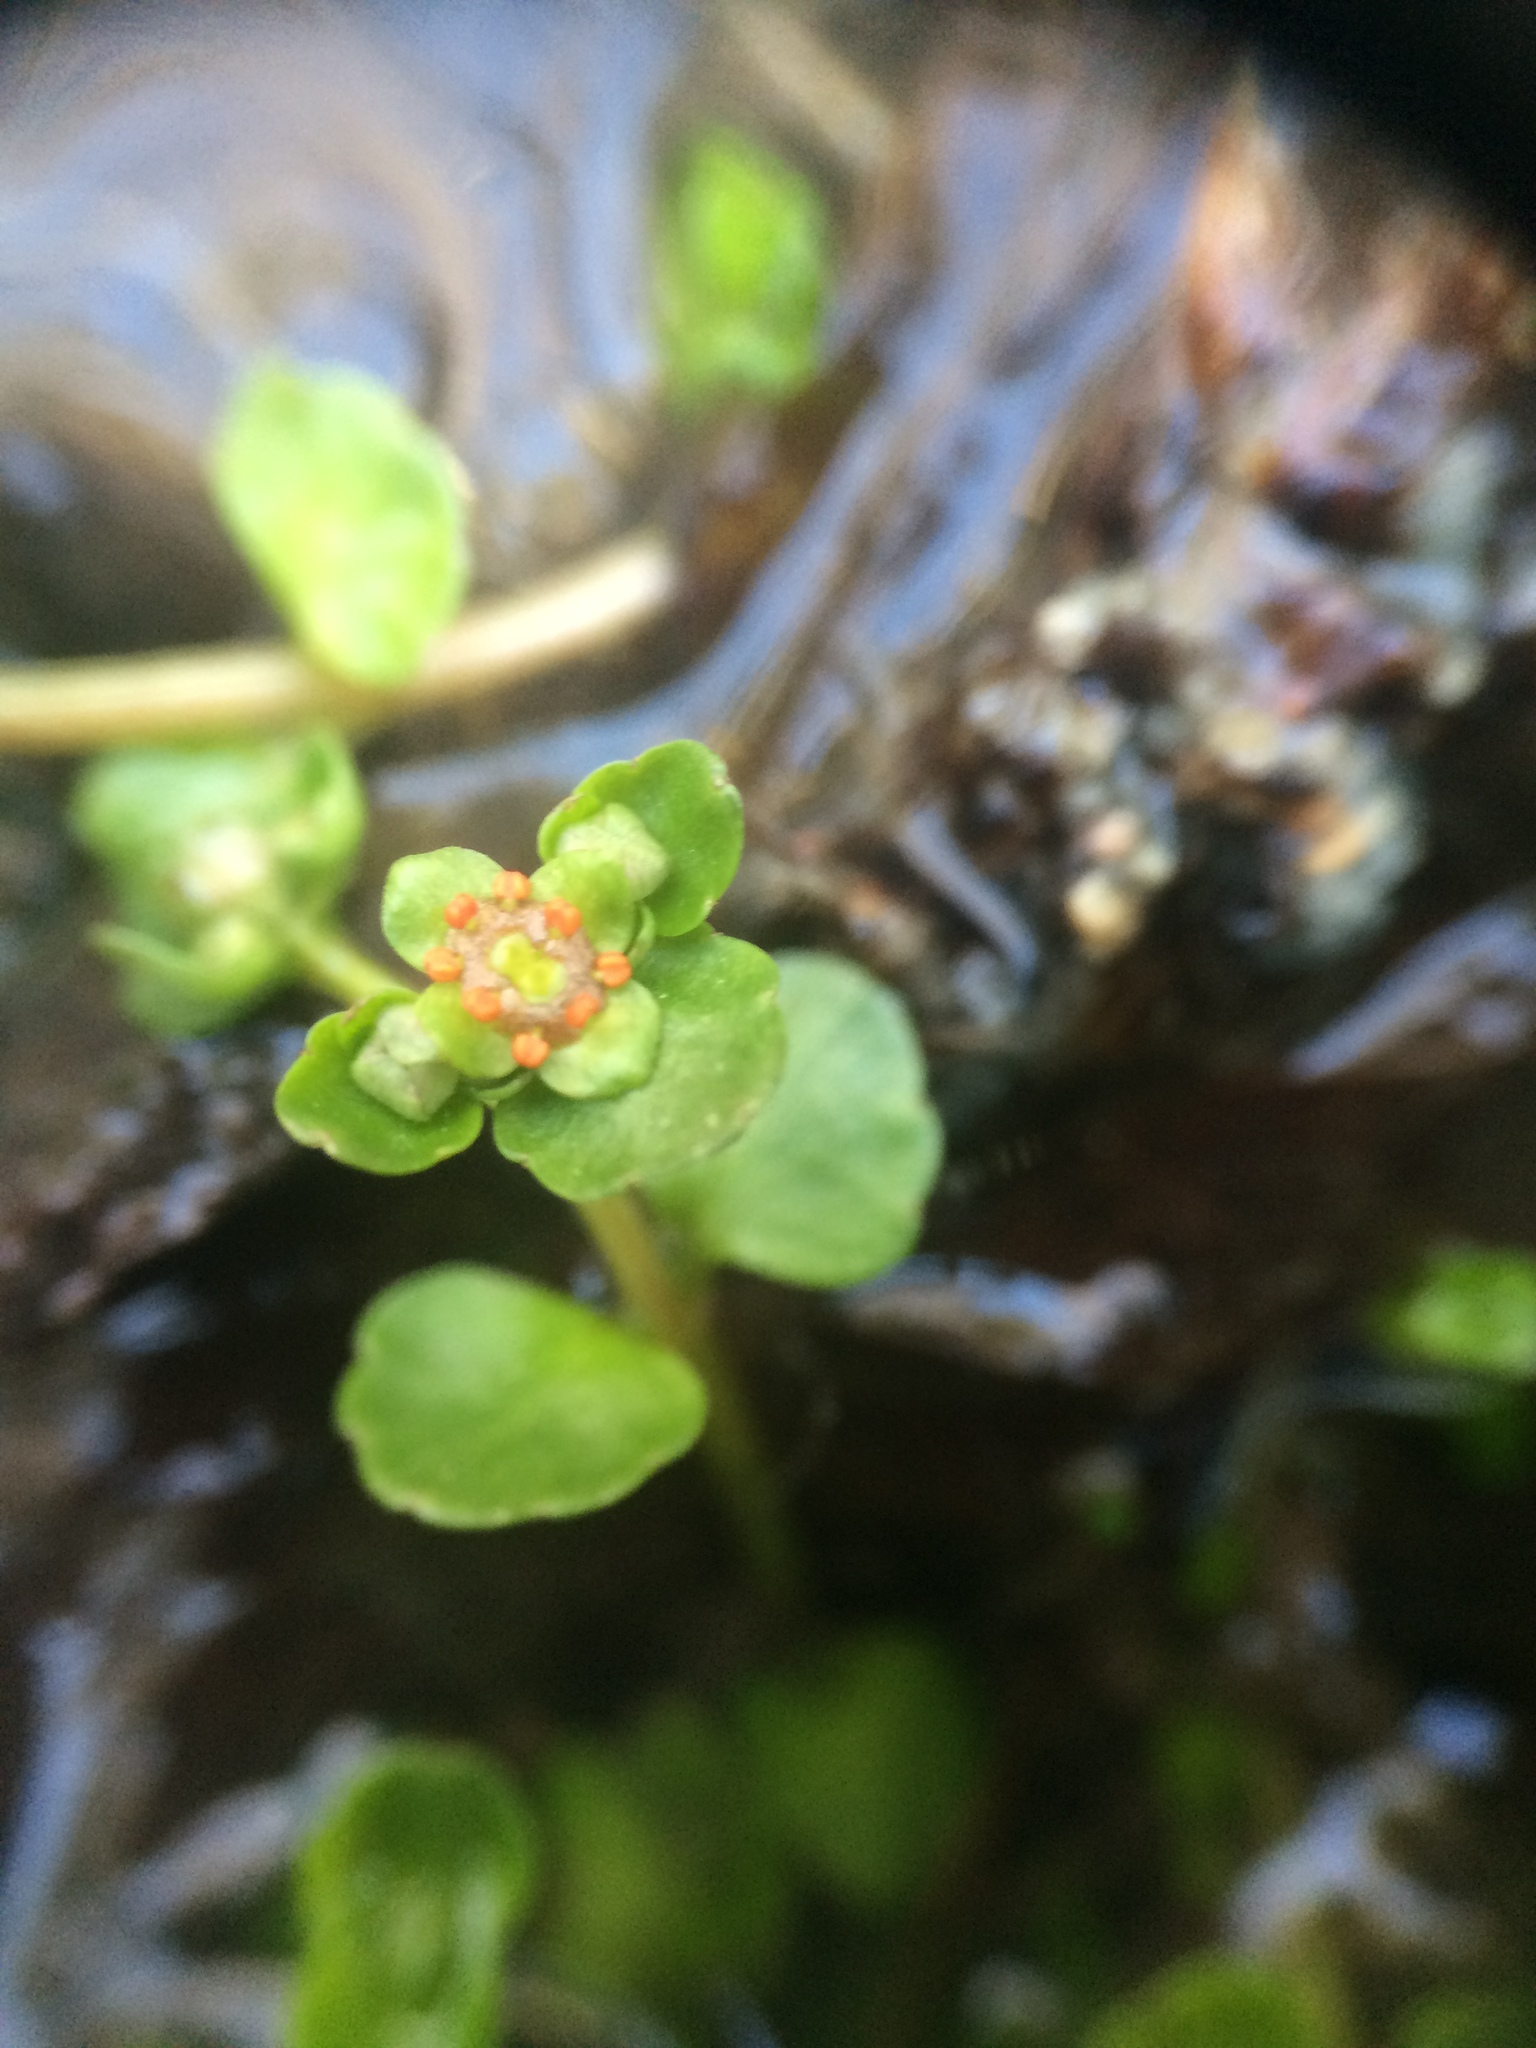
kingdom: Plantae
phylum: Tracheophyta
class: Magnoliopsida
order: Saxifragales
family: Saxifragaceae
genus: Chrysosplenium
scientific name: Chrysosplenium americanum
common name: American golden-saxifrage
